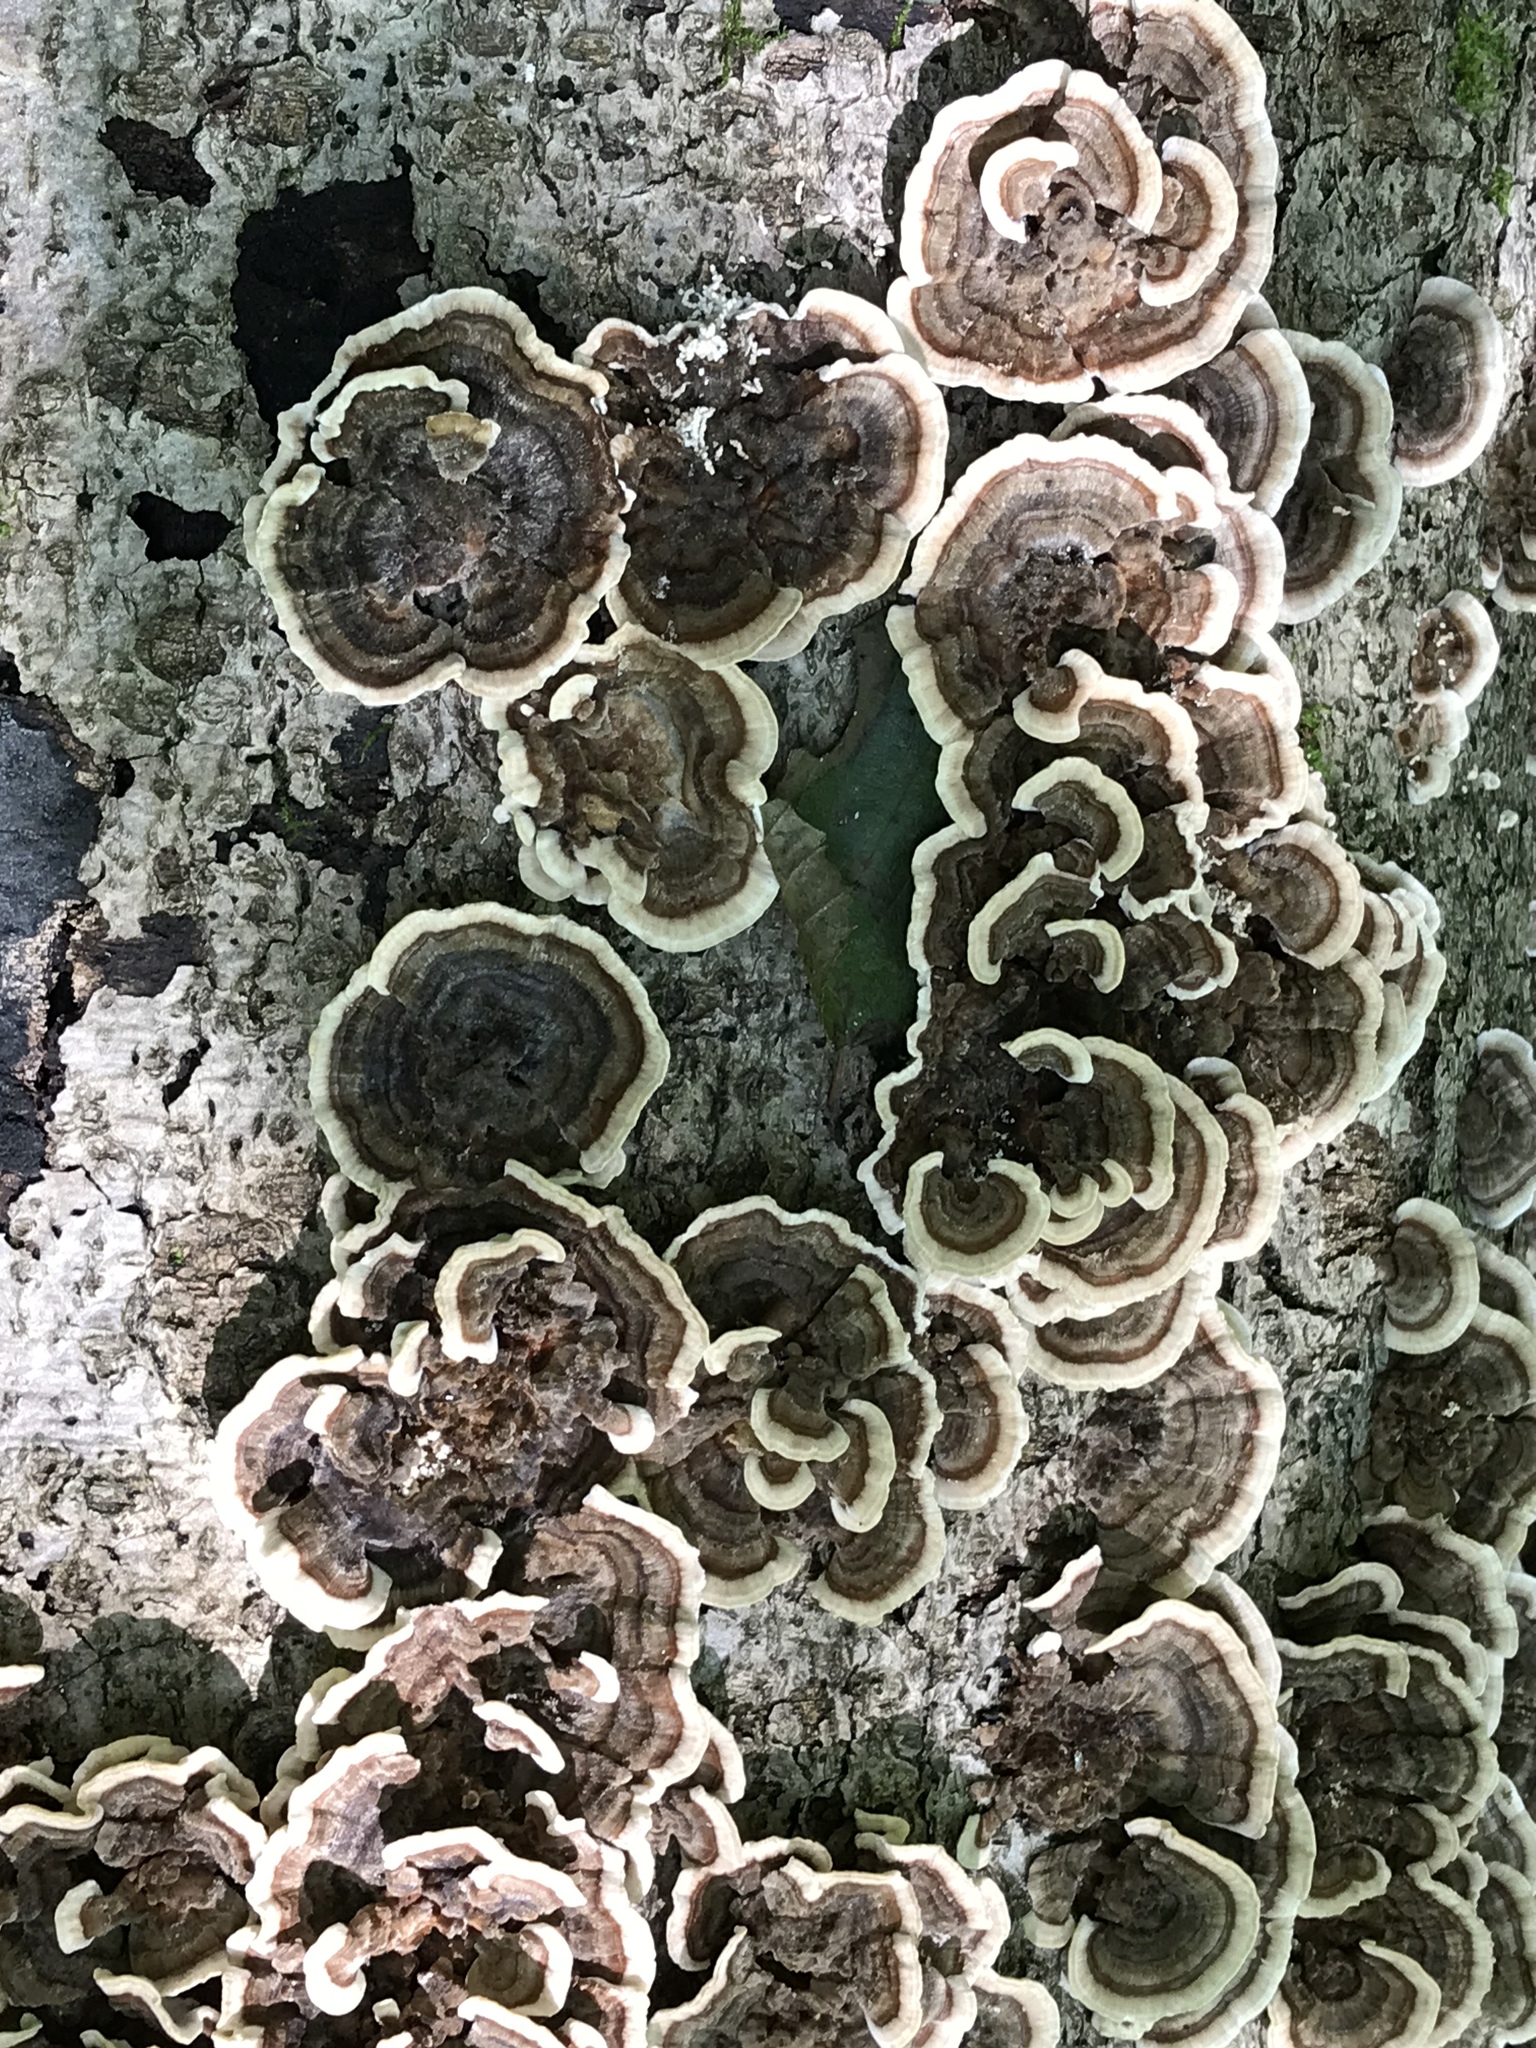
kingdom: Fungi
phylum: Basidiomycota
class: Agaricomycetes
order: Polyporales
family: Polyporaceae
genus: Trametes
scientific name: Trametes versicolor
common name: Turkeytail
